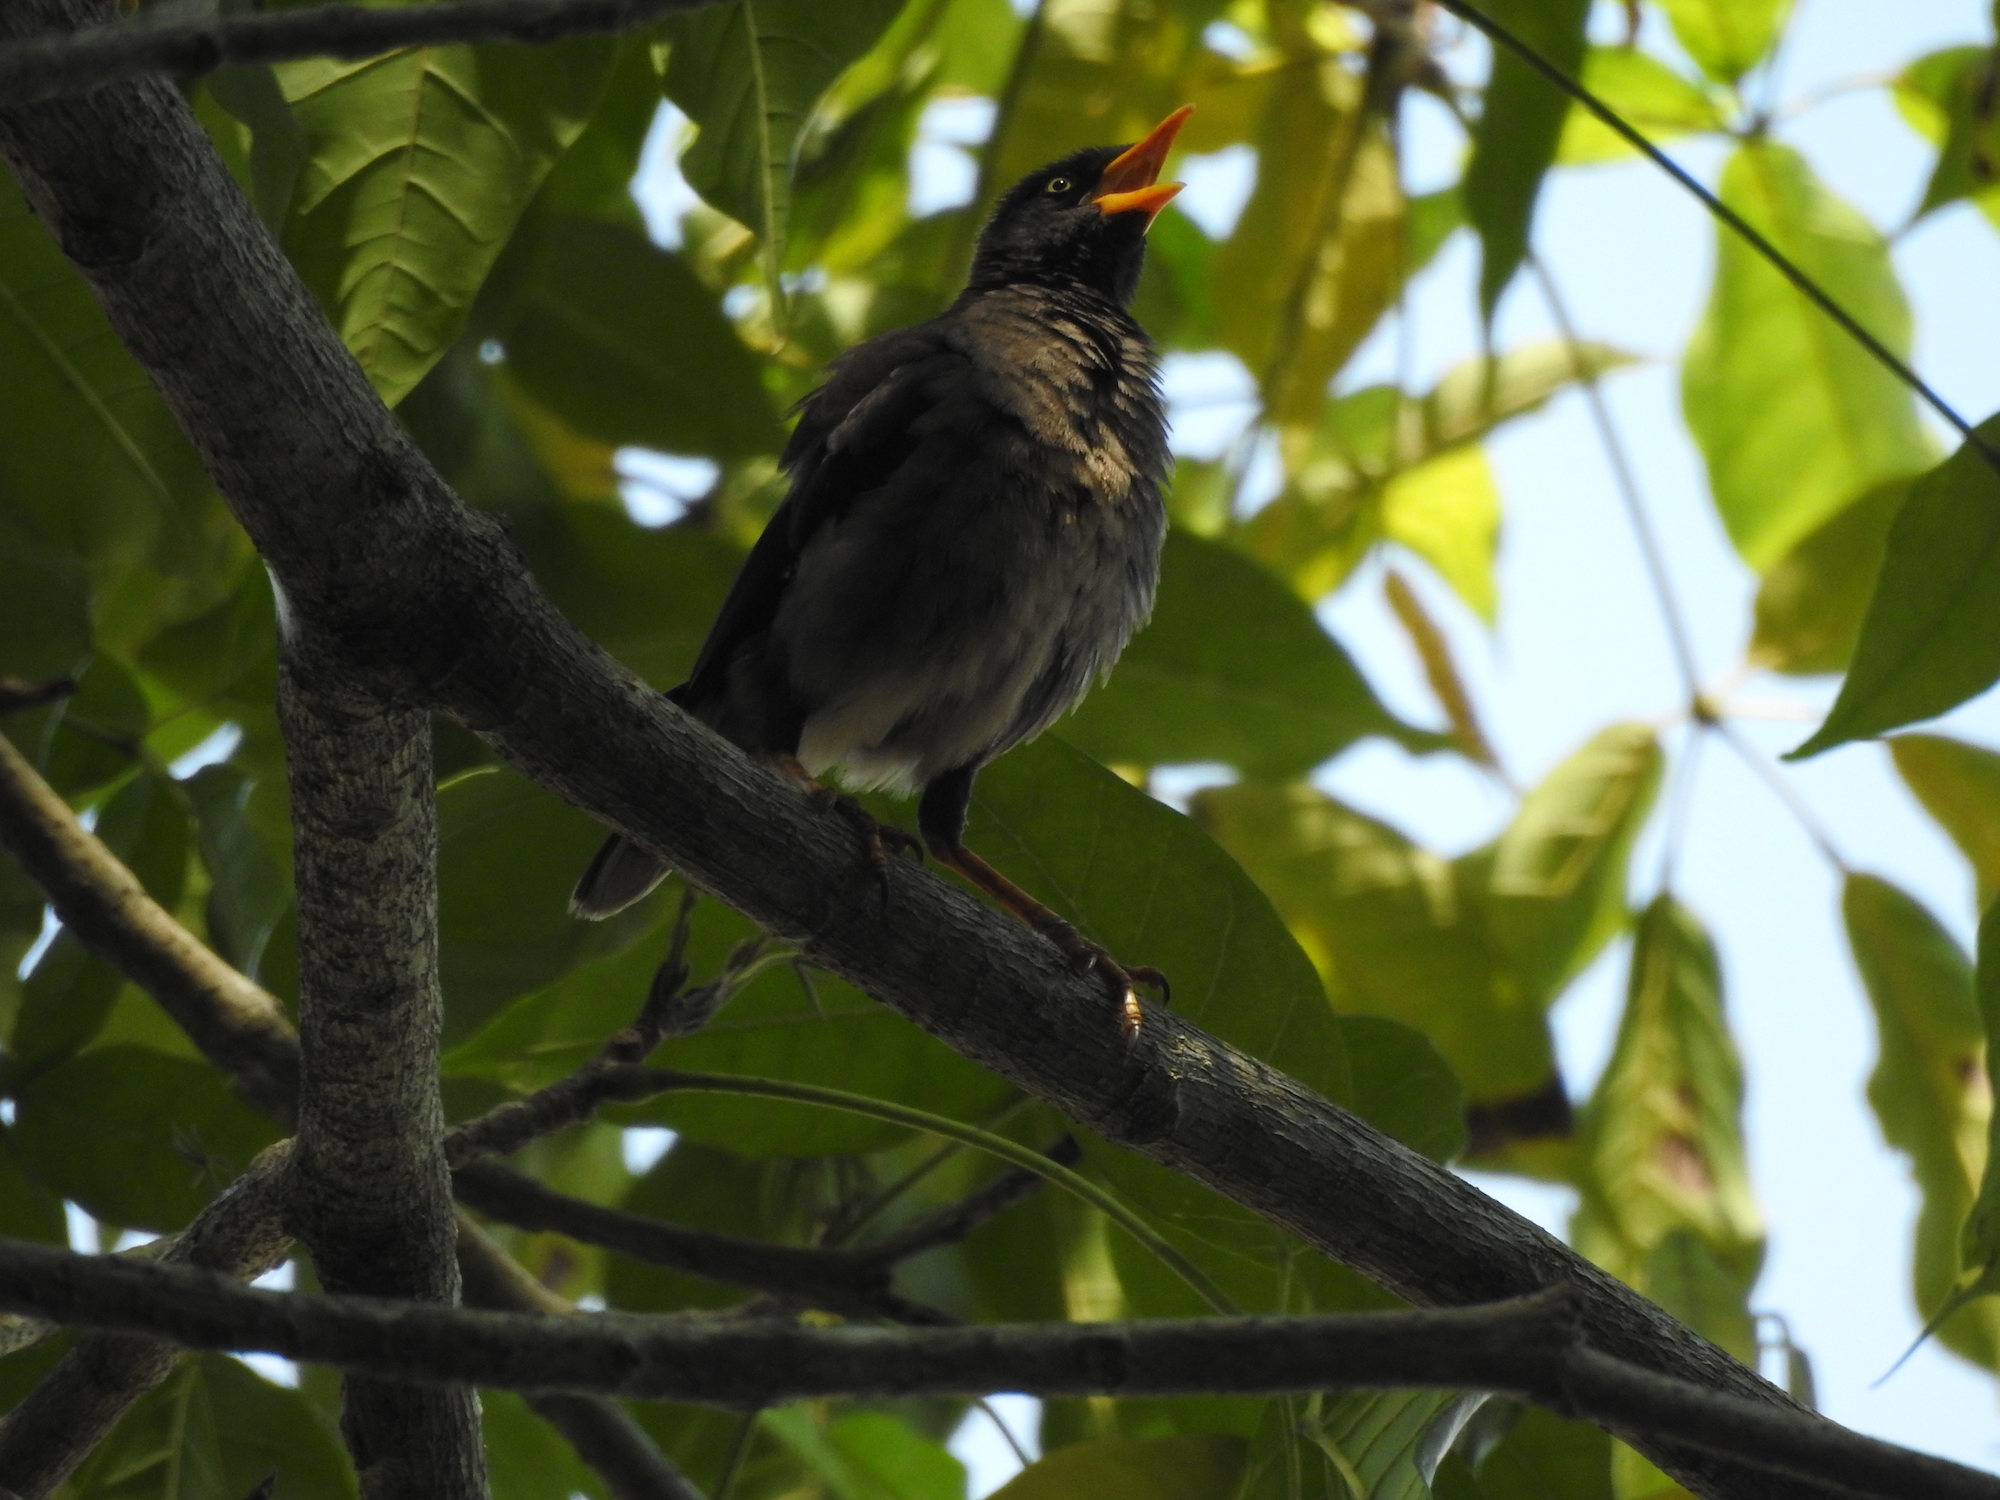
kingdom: Animalia
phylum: Chordata
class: Aves
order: Passeriformes
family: Sturnidae
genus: Acridotheres
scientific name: Acridotheres javanicus
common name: Javan myna
